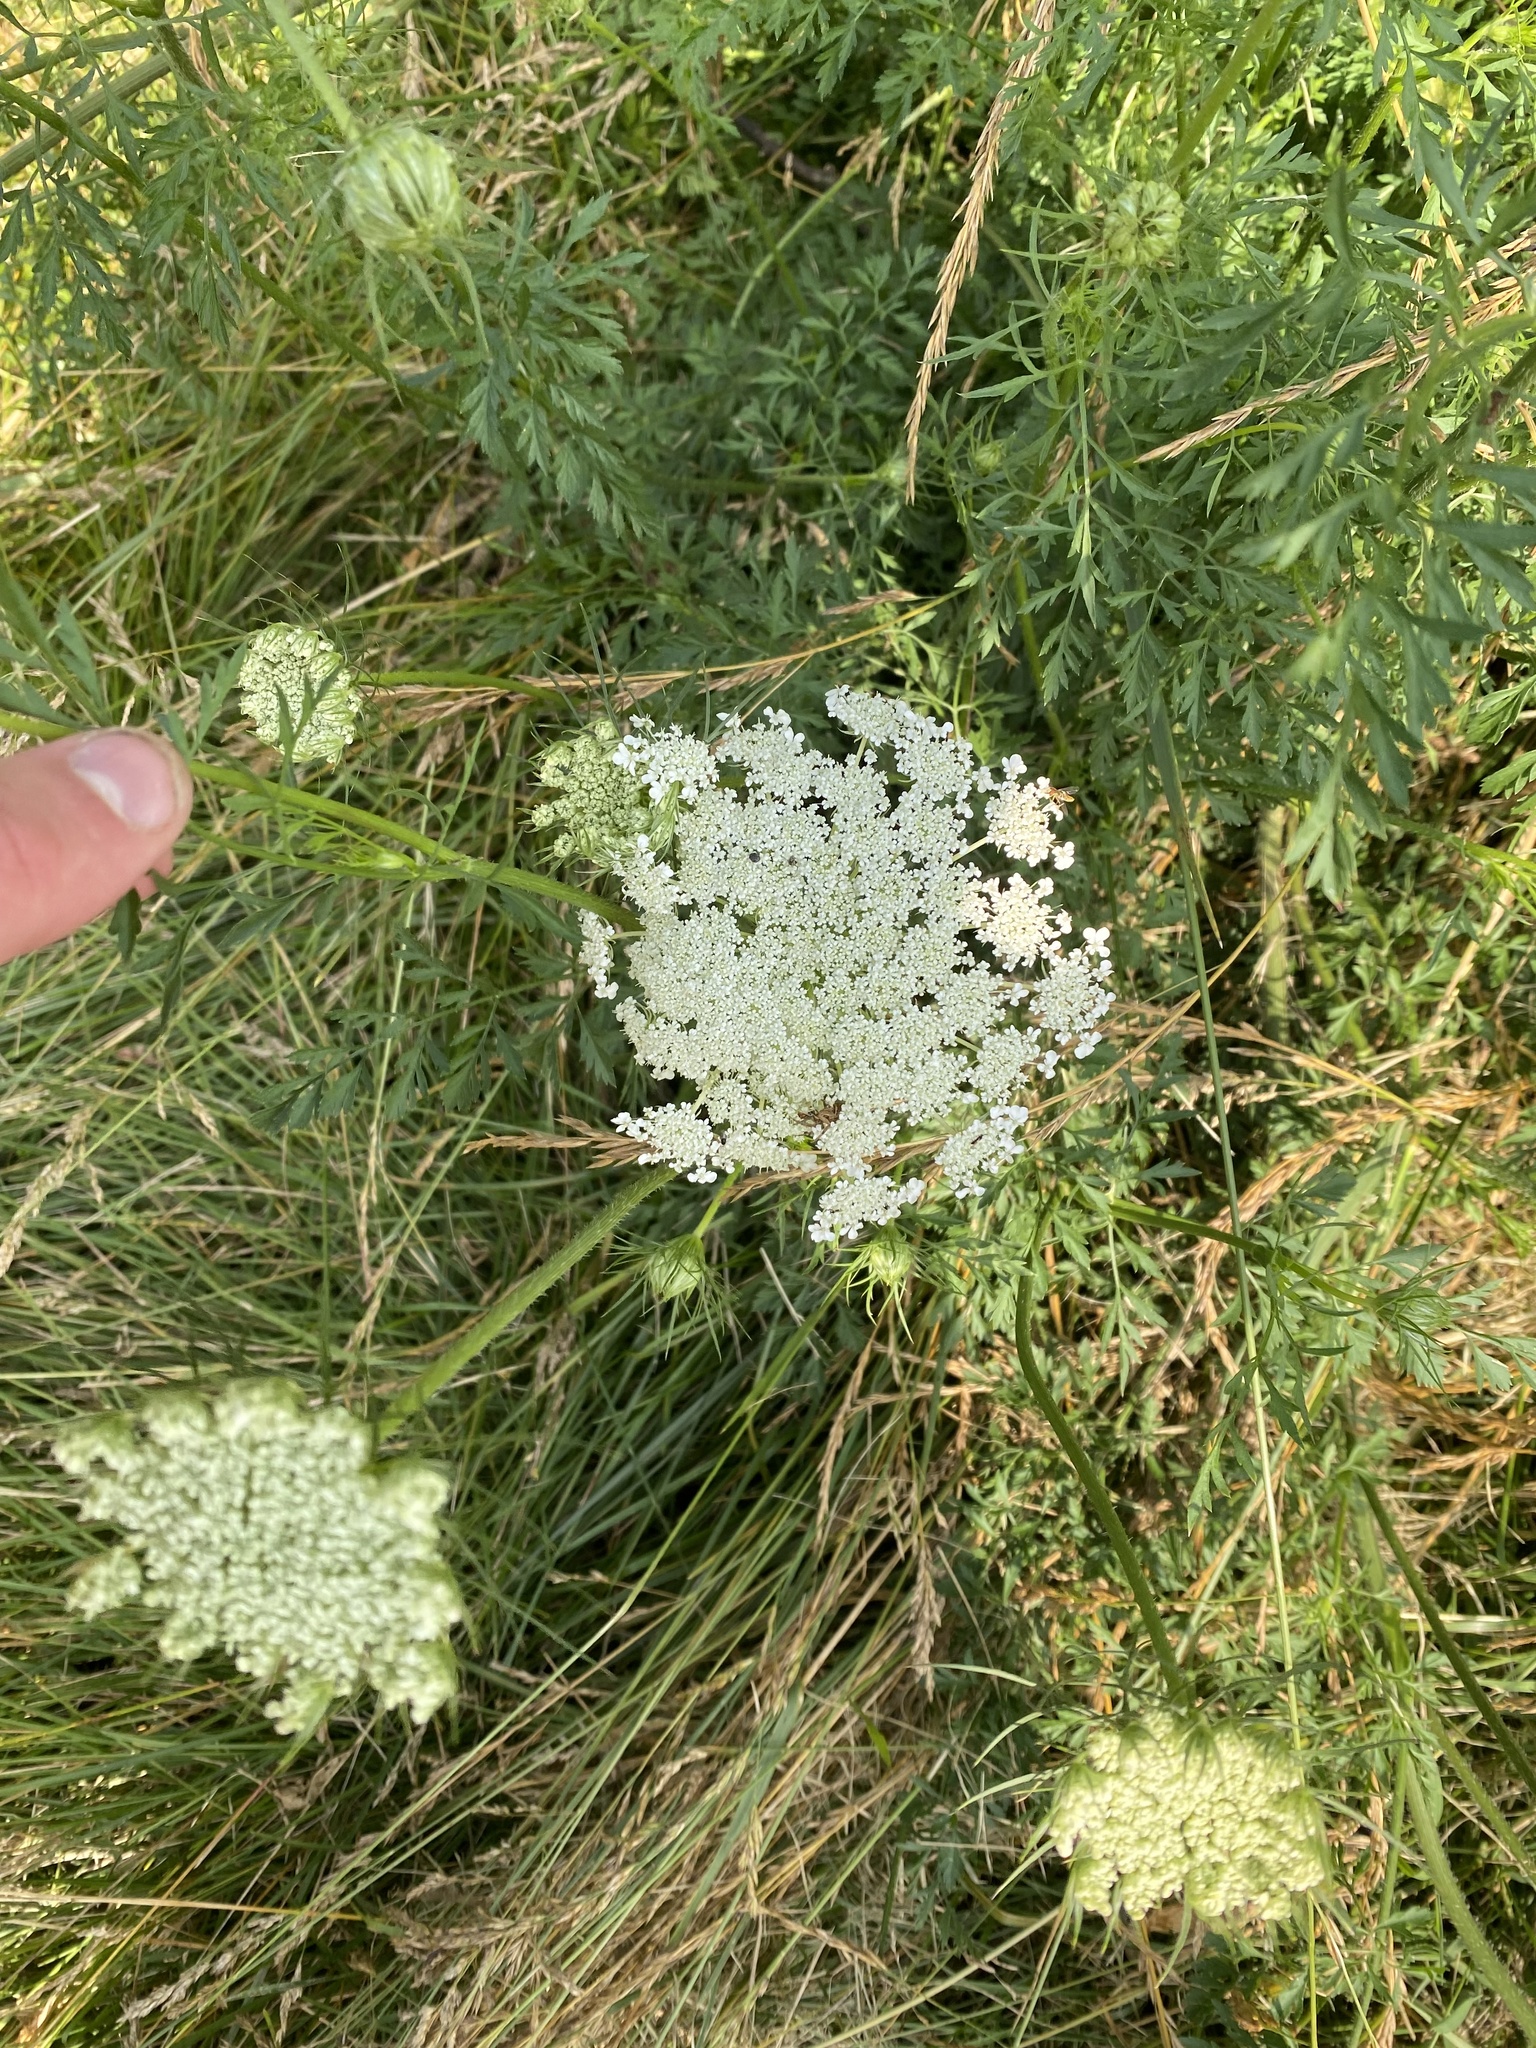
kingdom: Plantae
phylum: Tracheophyta
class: Magnoliopsida
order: Apiales
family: Apiaceae
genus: Daucus
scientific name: Daucus carota
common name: Wild carrot
